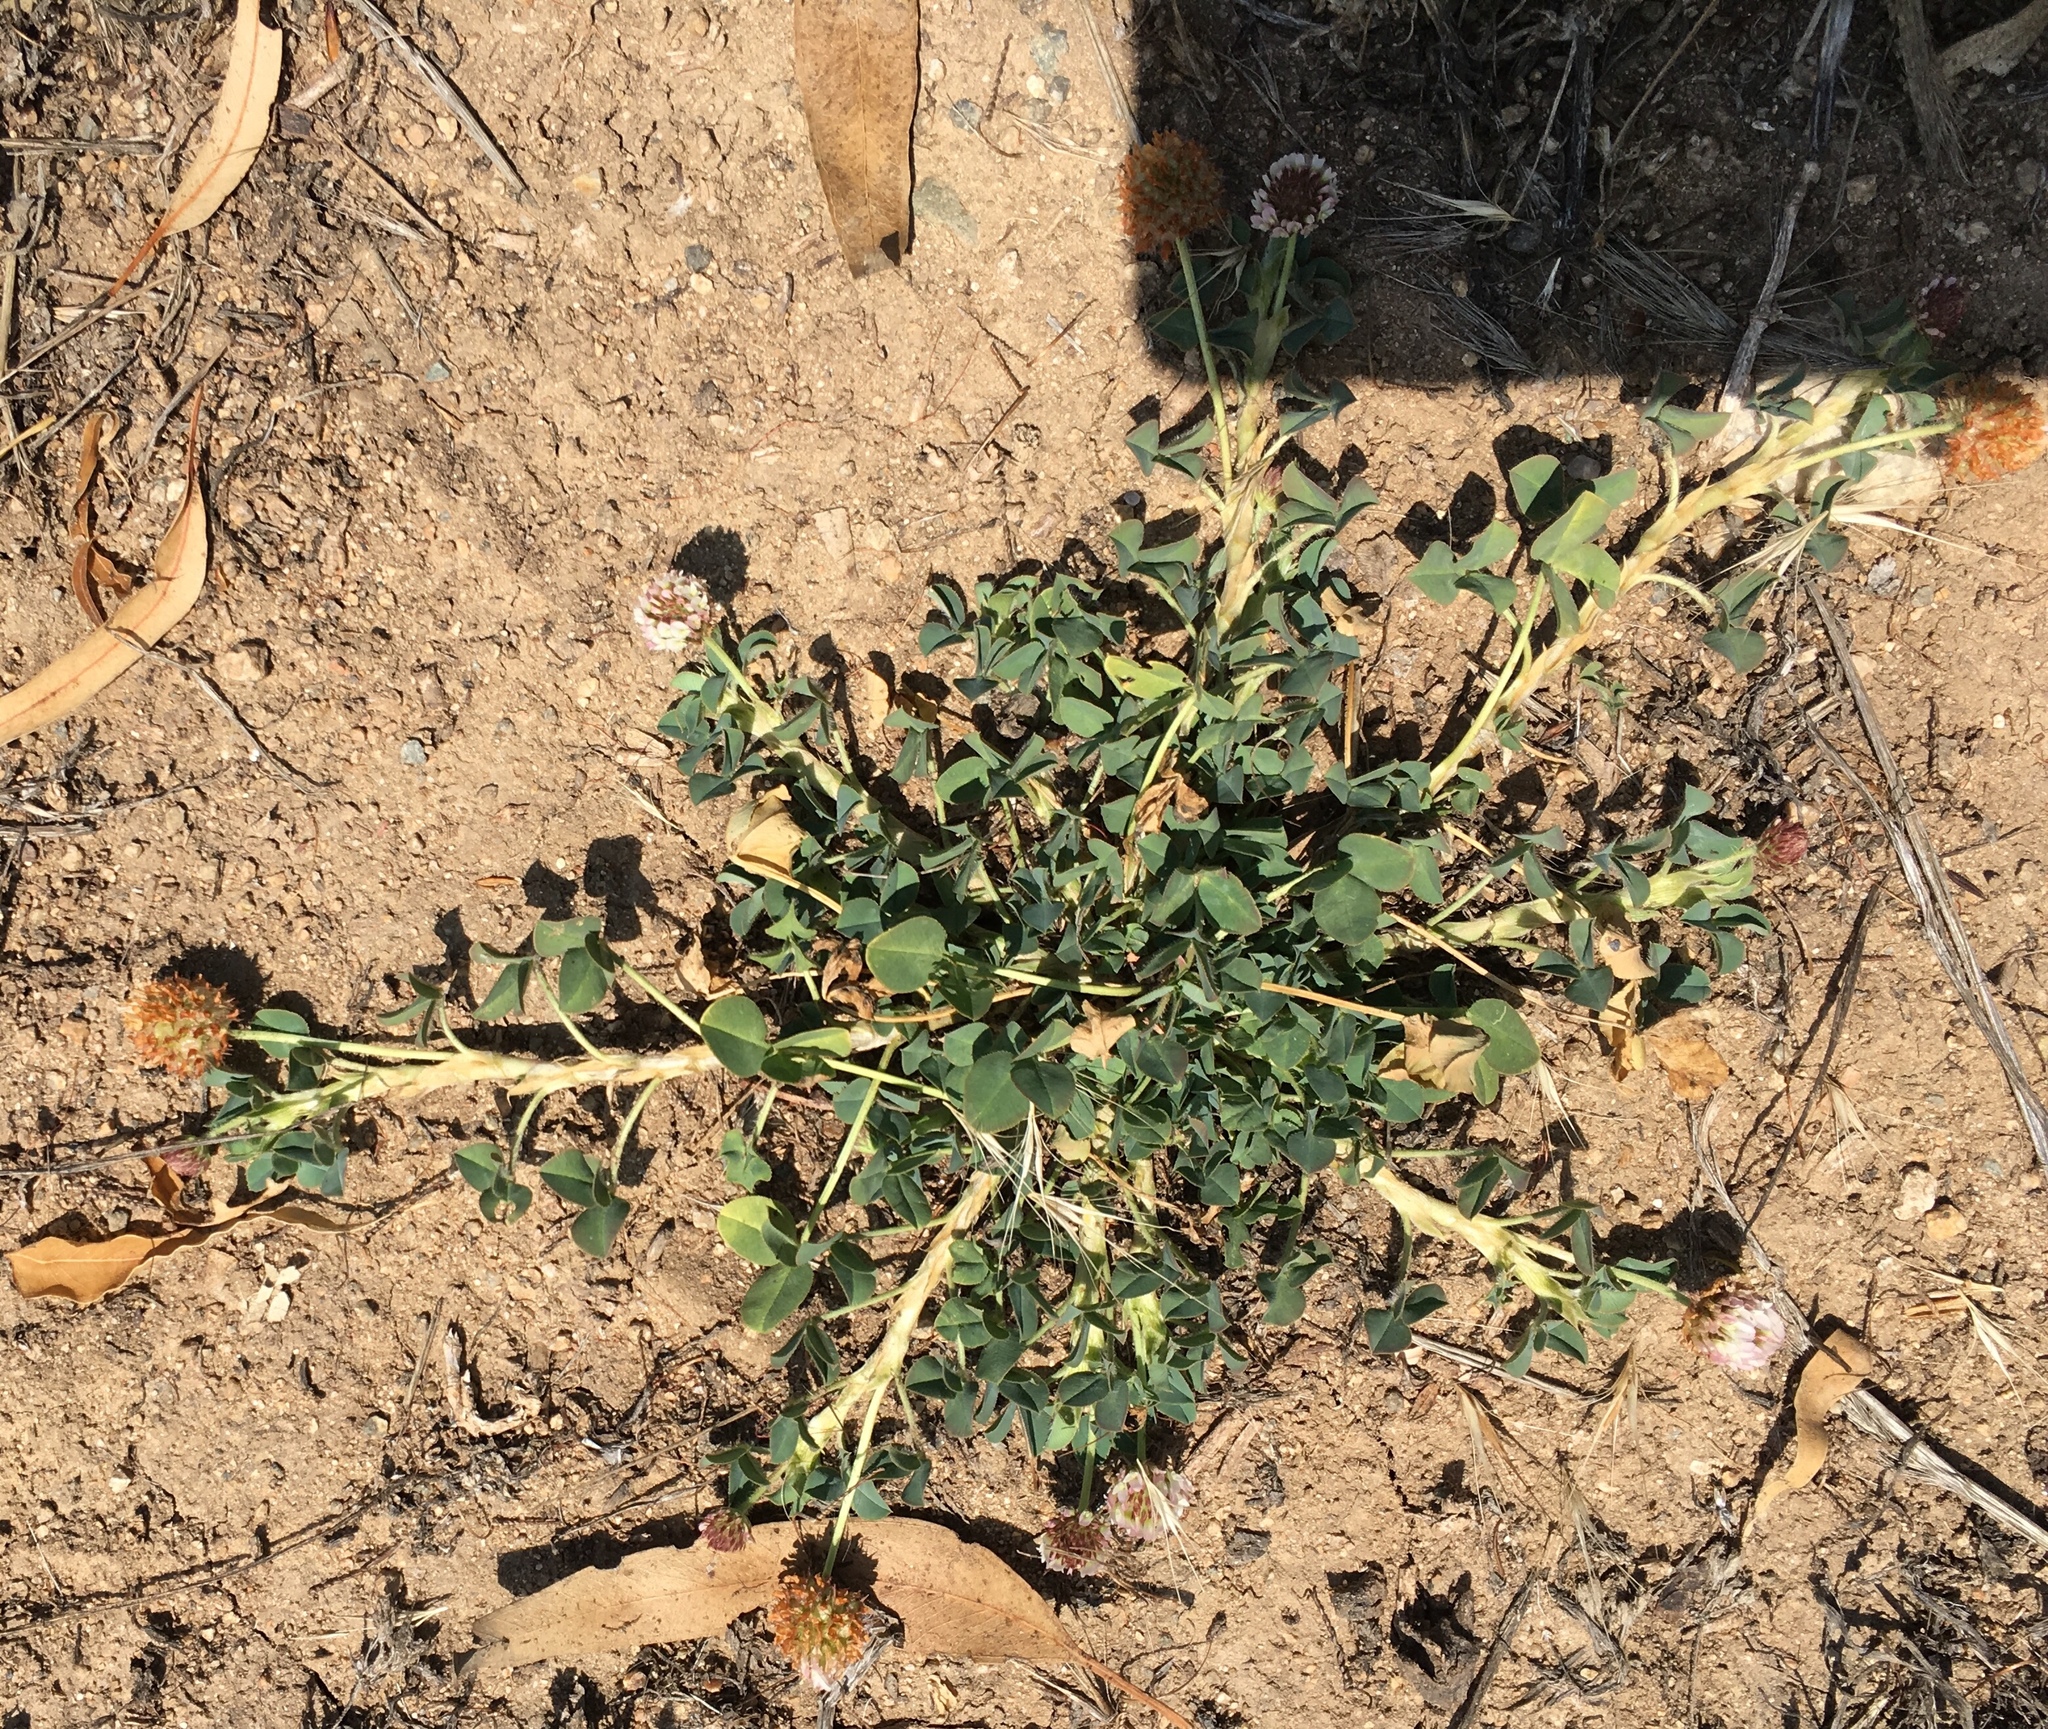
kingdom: Plantae
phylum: Tracheophyta
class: Magnoliopsida
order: Fabales
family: Fabaceae
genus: Trifolium
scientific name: Trifolium fragiferum
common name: Strawberry clover
